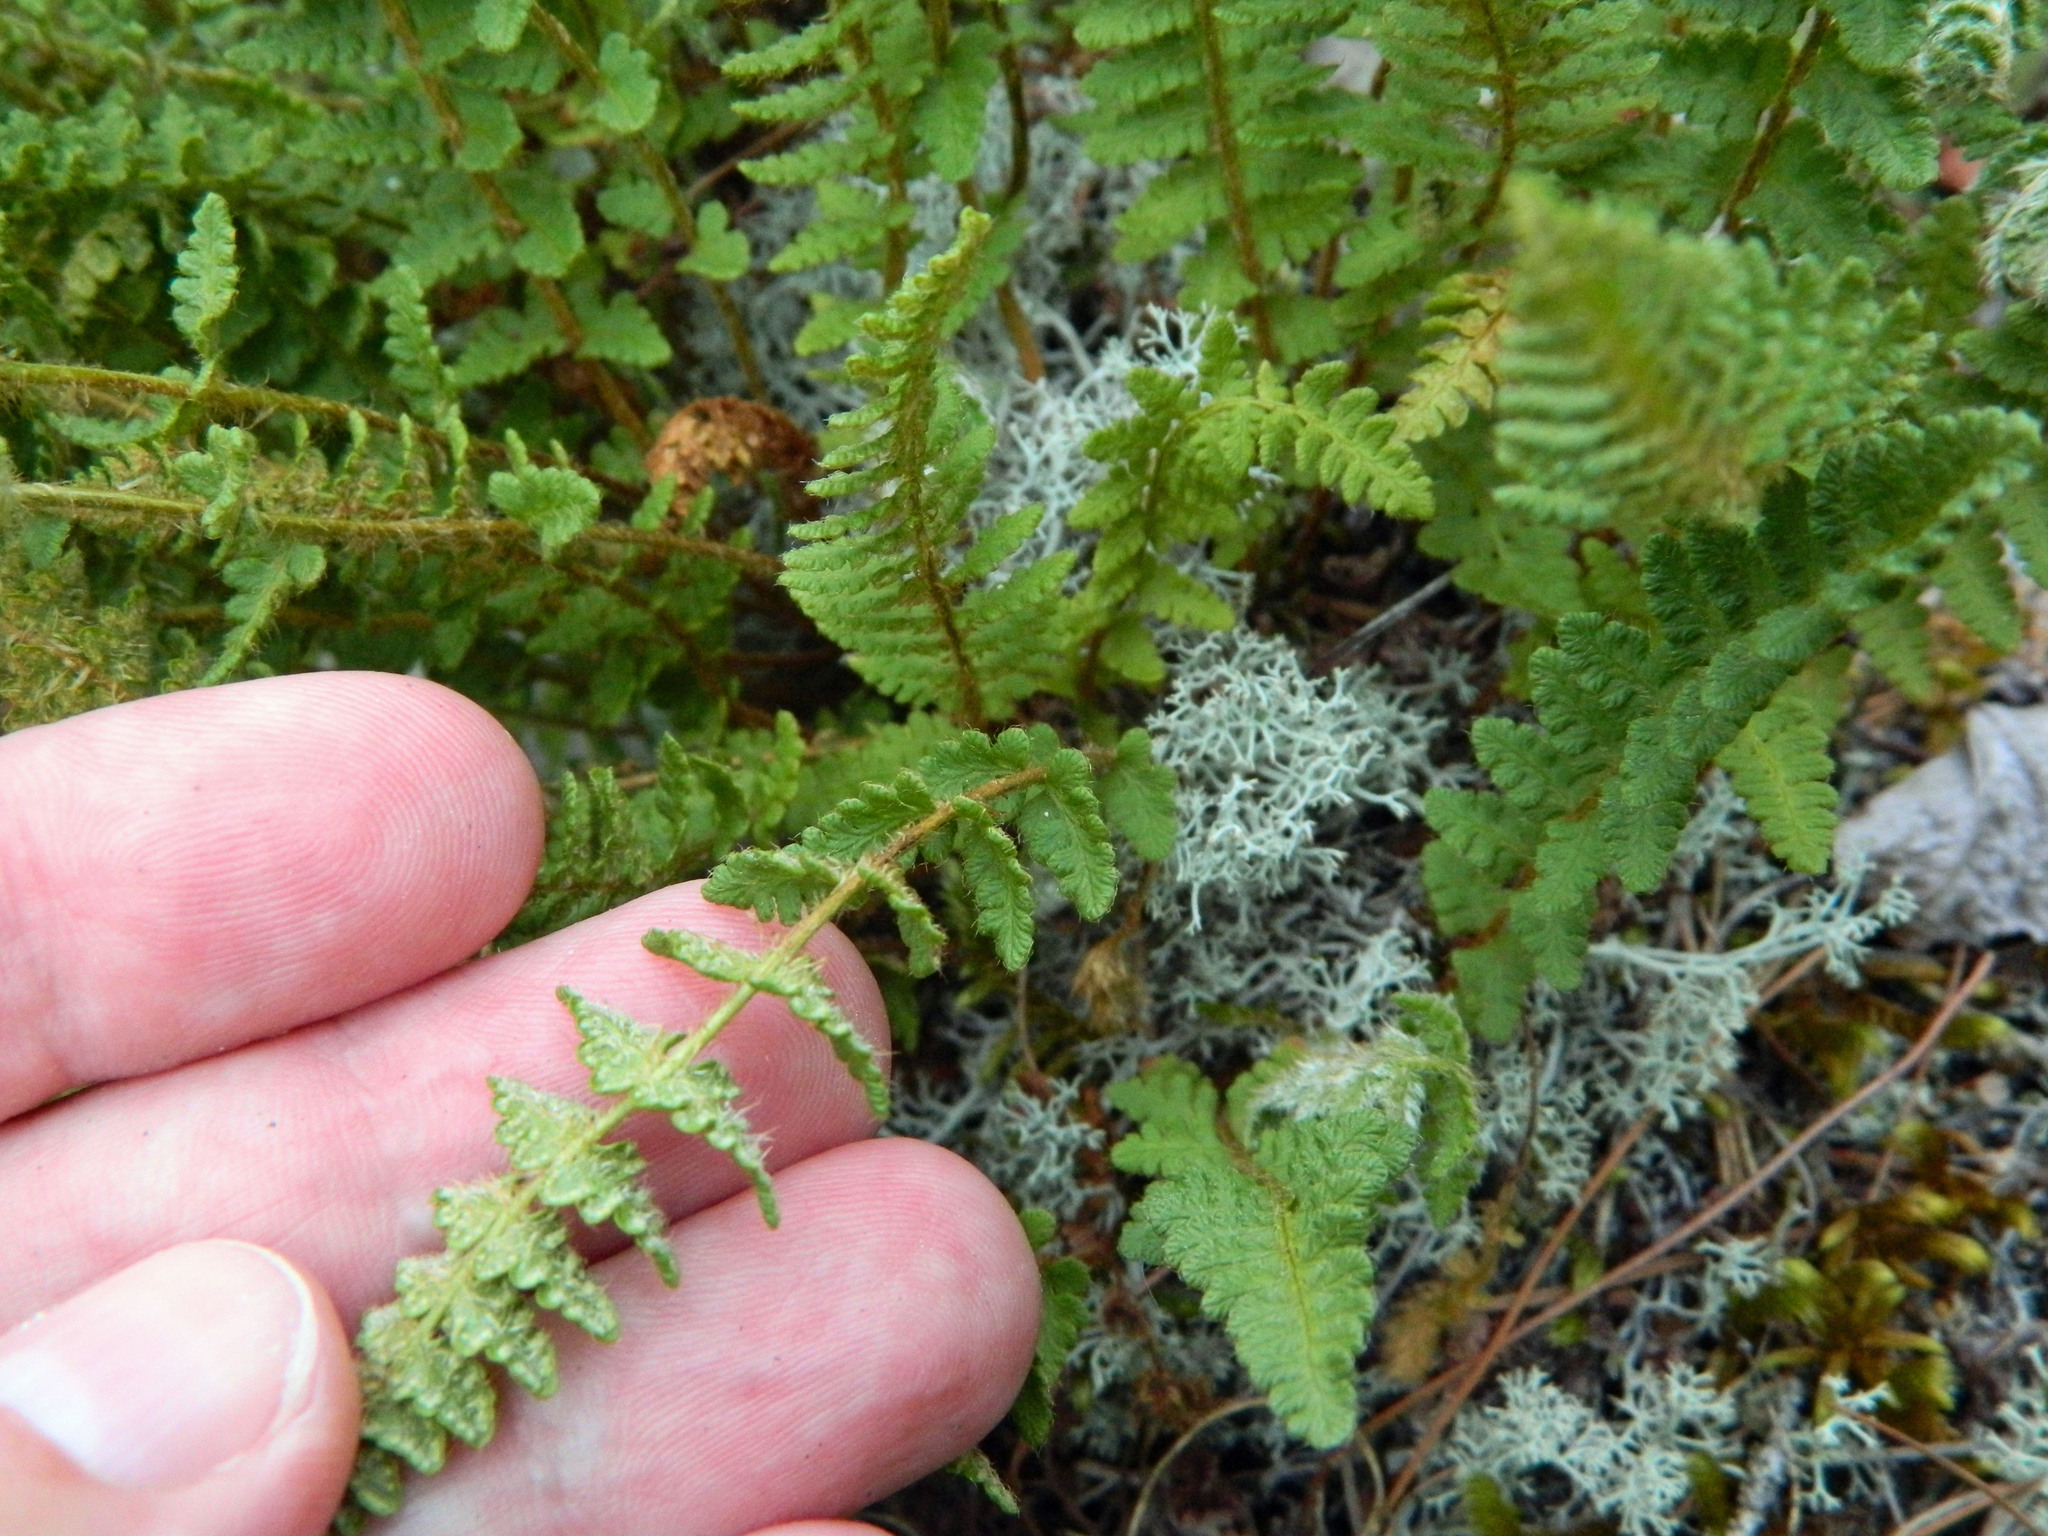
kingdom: Plantae
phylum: Tracheophyta
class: Polypodiopsida
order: Polypodiales
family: Woodsiaceae
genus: Woodsia
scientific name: Woodsia ilvensis
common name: Fragrant woodsia
